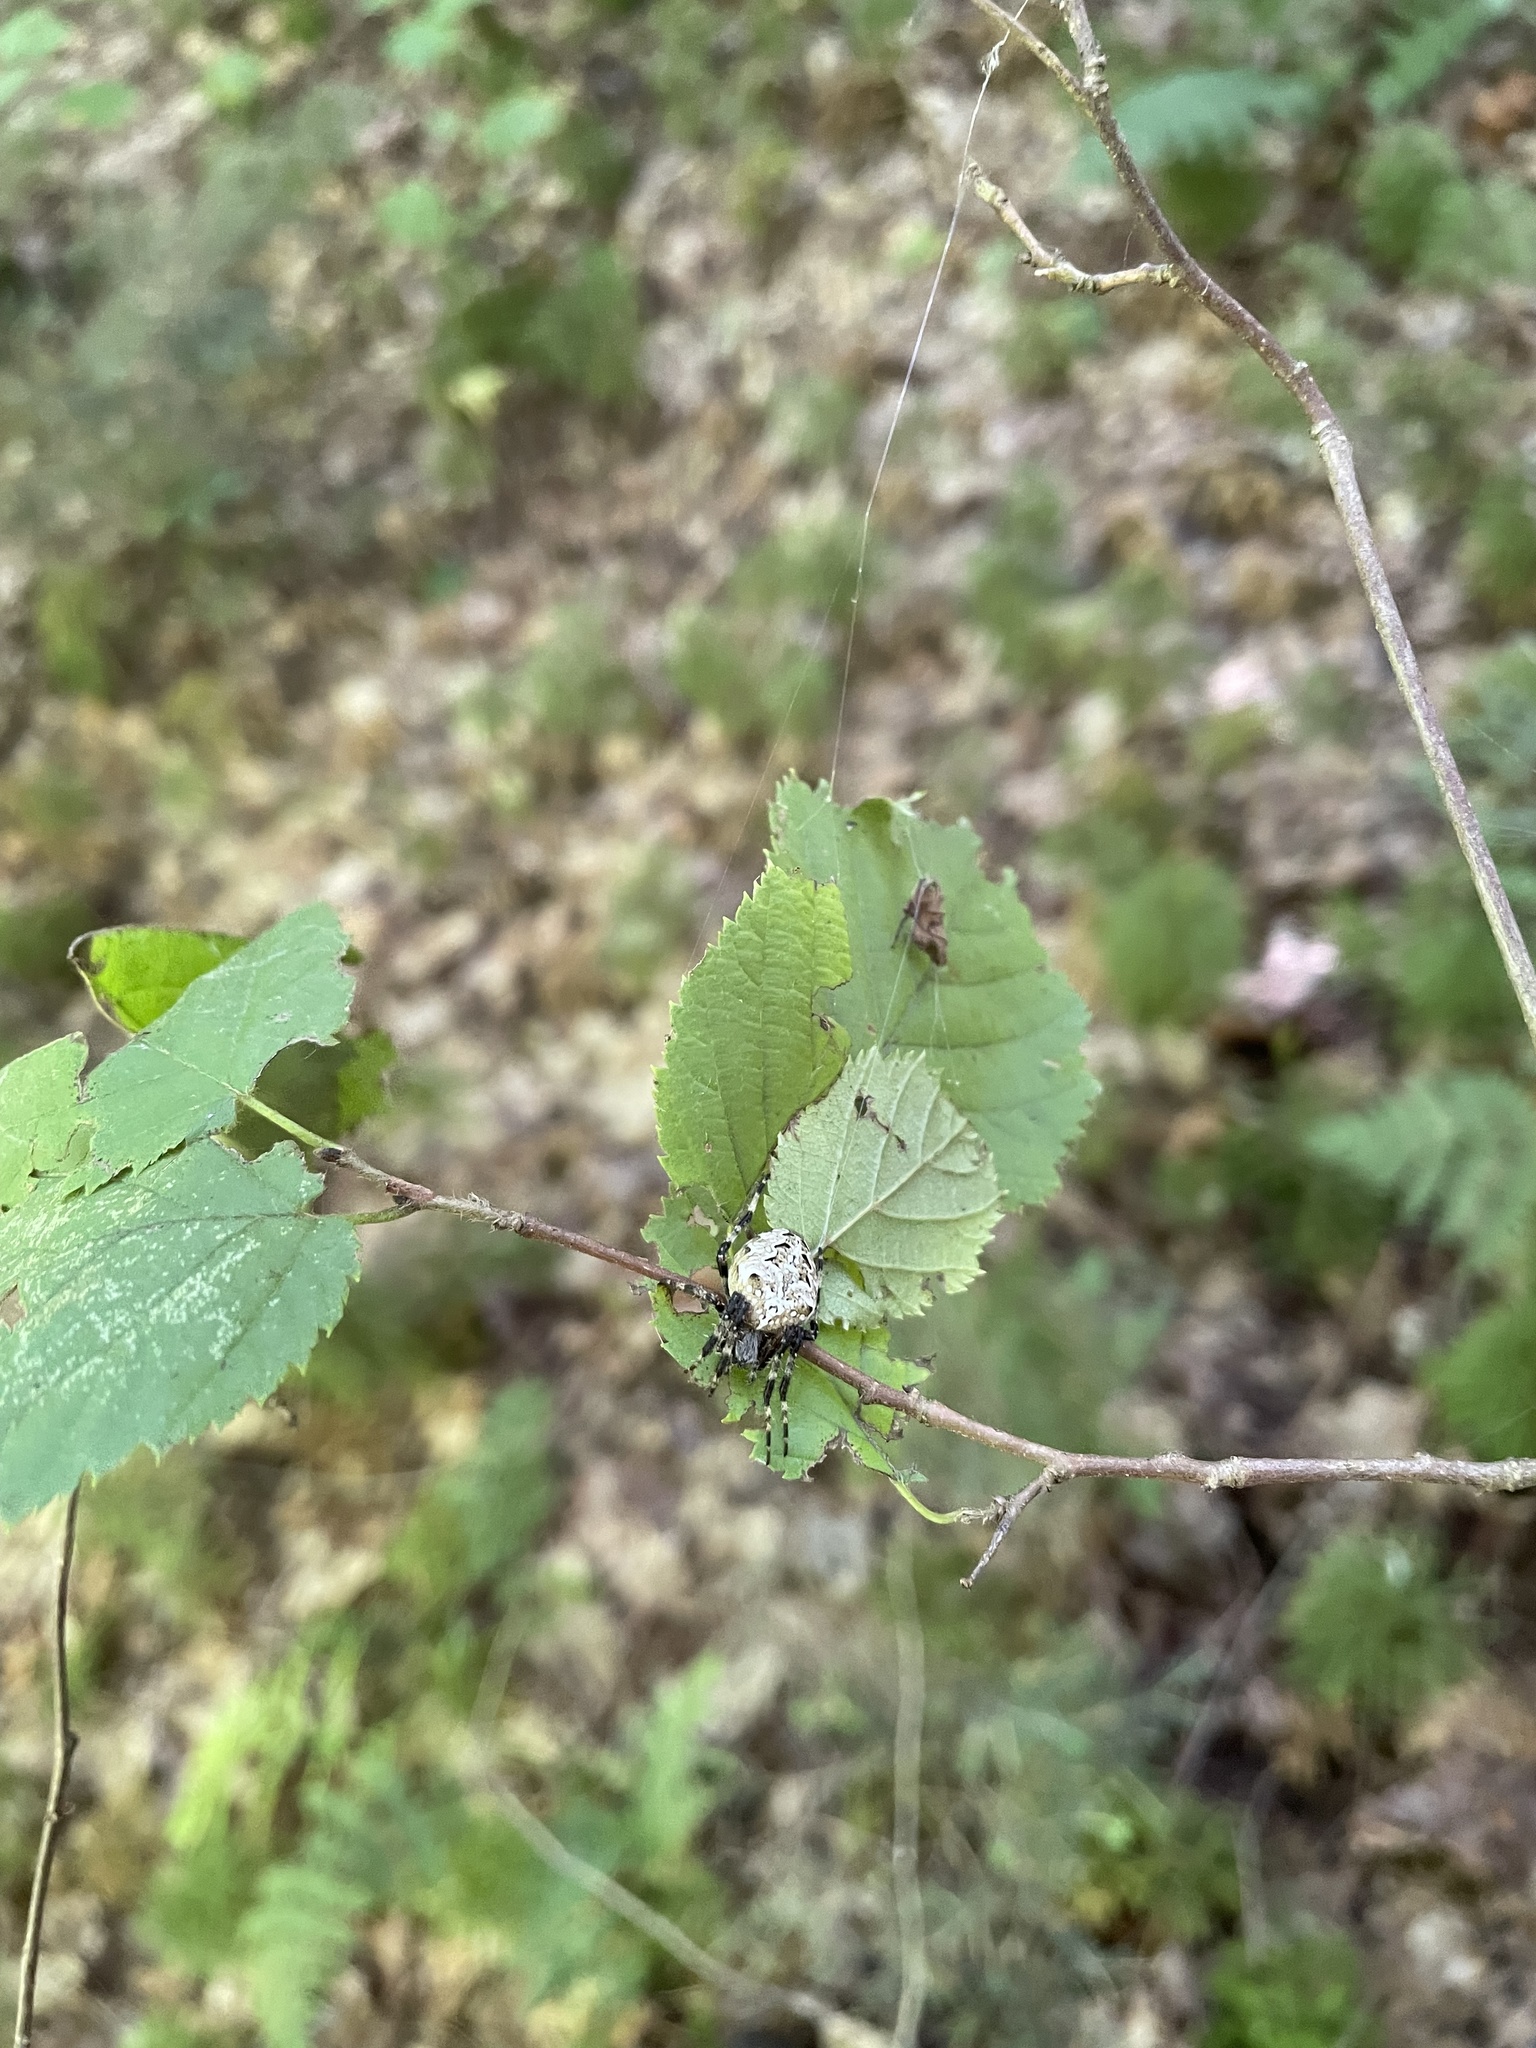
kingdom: Animalia
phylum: Arthropoda
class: Arachnida
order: Araneae
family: Araneidae
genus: Araneus
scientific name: Araneus nordmanni
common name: Nordmann's orbweaver
